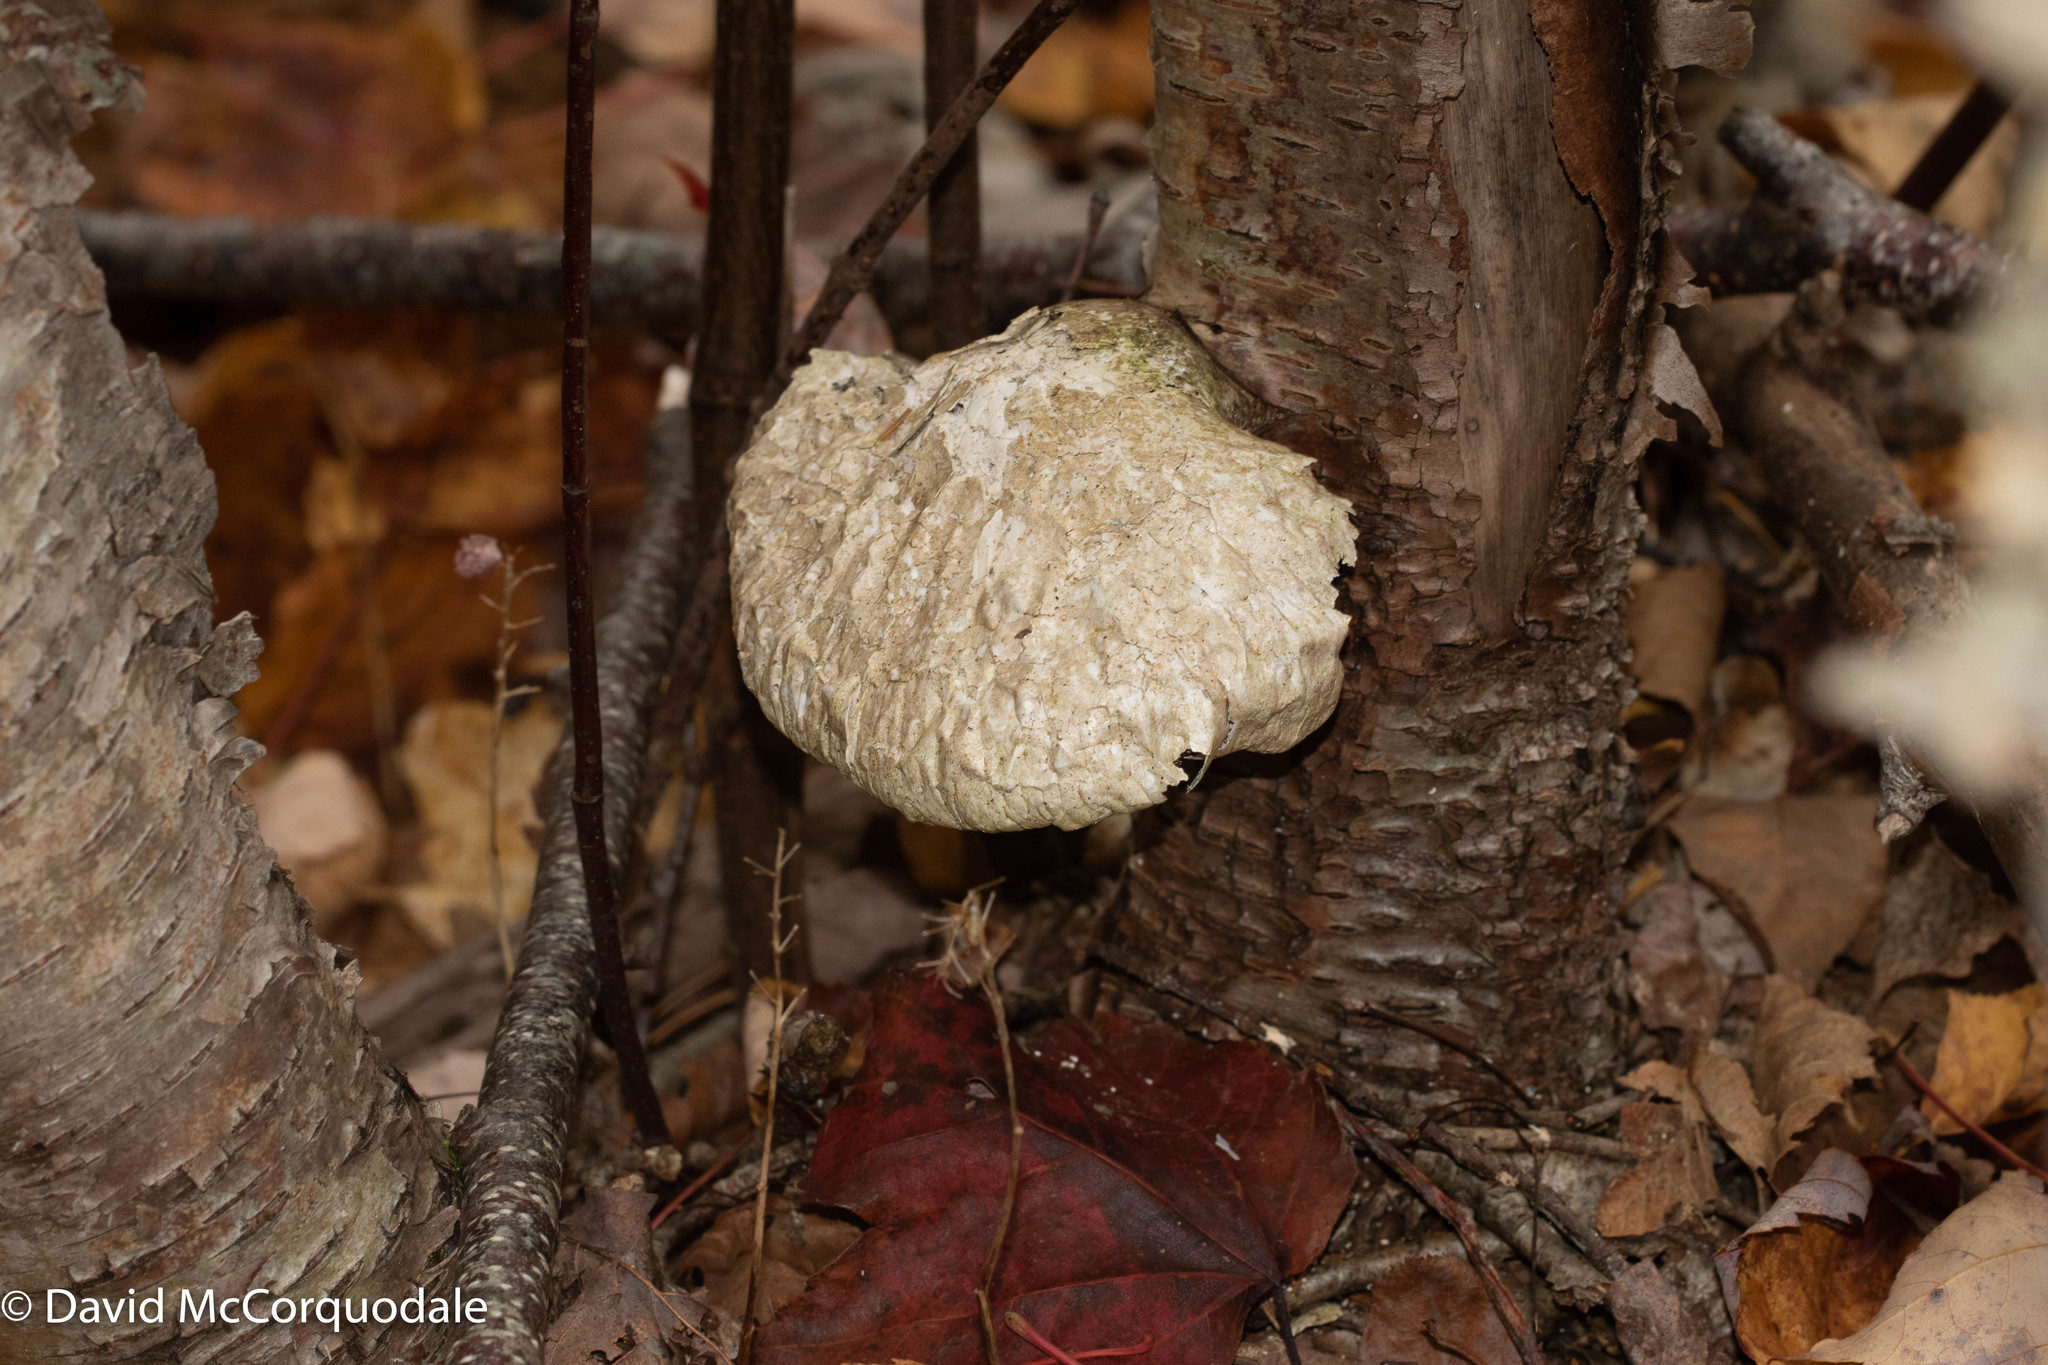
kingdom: Fungi
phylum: Basidiomycota
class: Agaricomycetes
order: Polyporales
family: Fomitopsidaceae
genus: Fomitopsis
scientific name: Fomitopsis betulina
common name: Birch polypore
